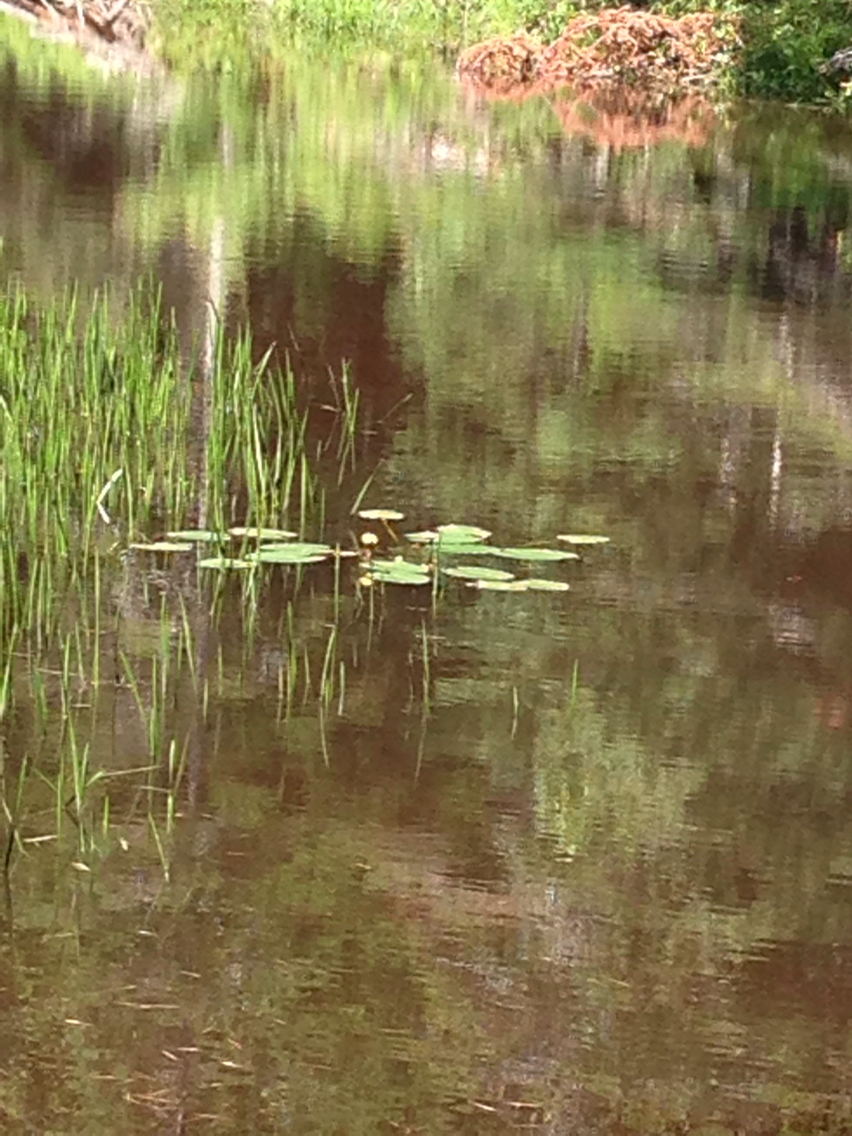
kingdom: Plantae
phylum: Tracheophyta
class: Magnoliopsida
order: Nymphaeales
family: Nymphaeaceae
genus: Nuphar
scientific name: Nuphar variegata
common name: Beaver-root
